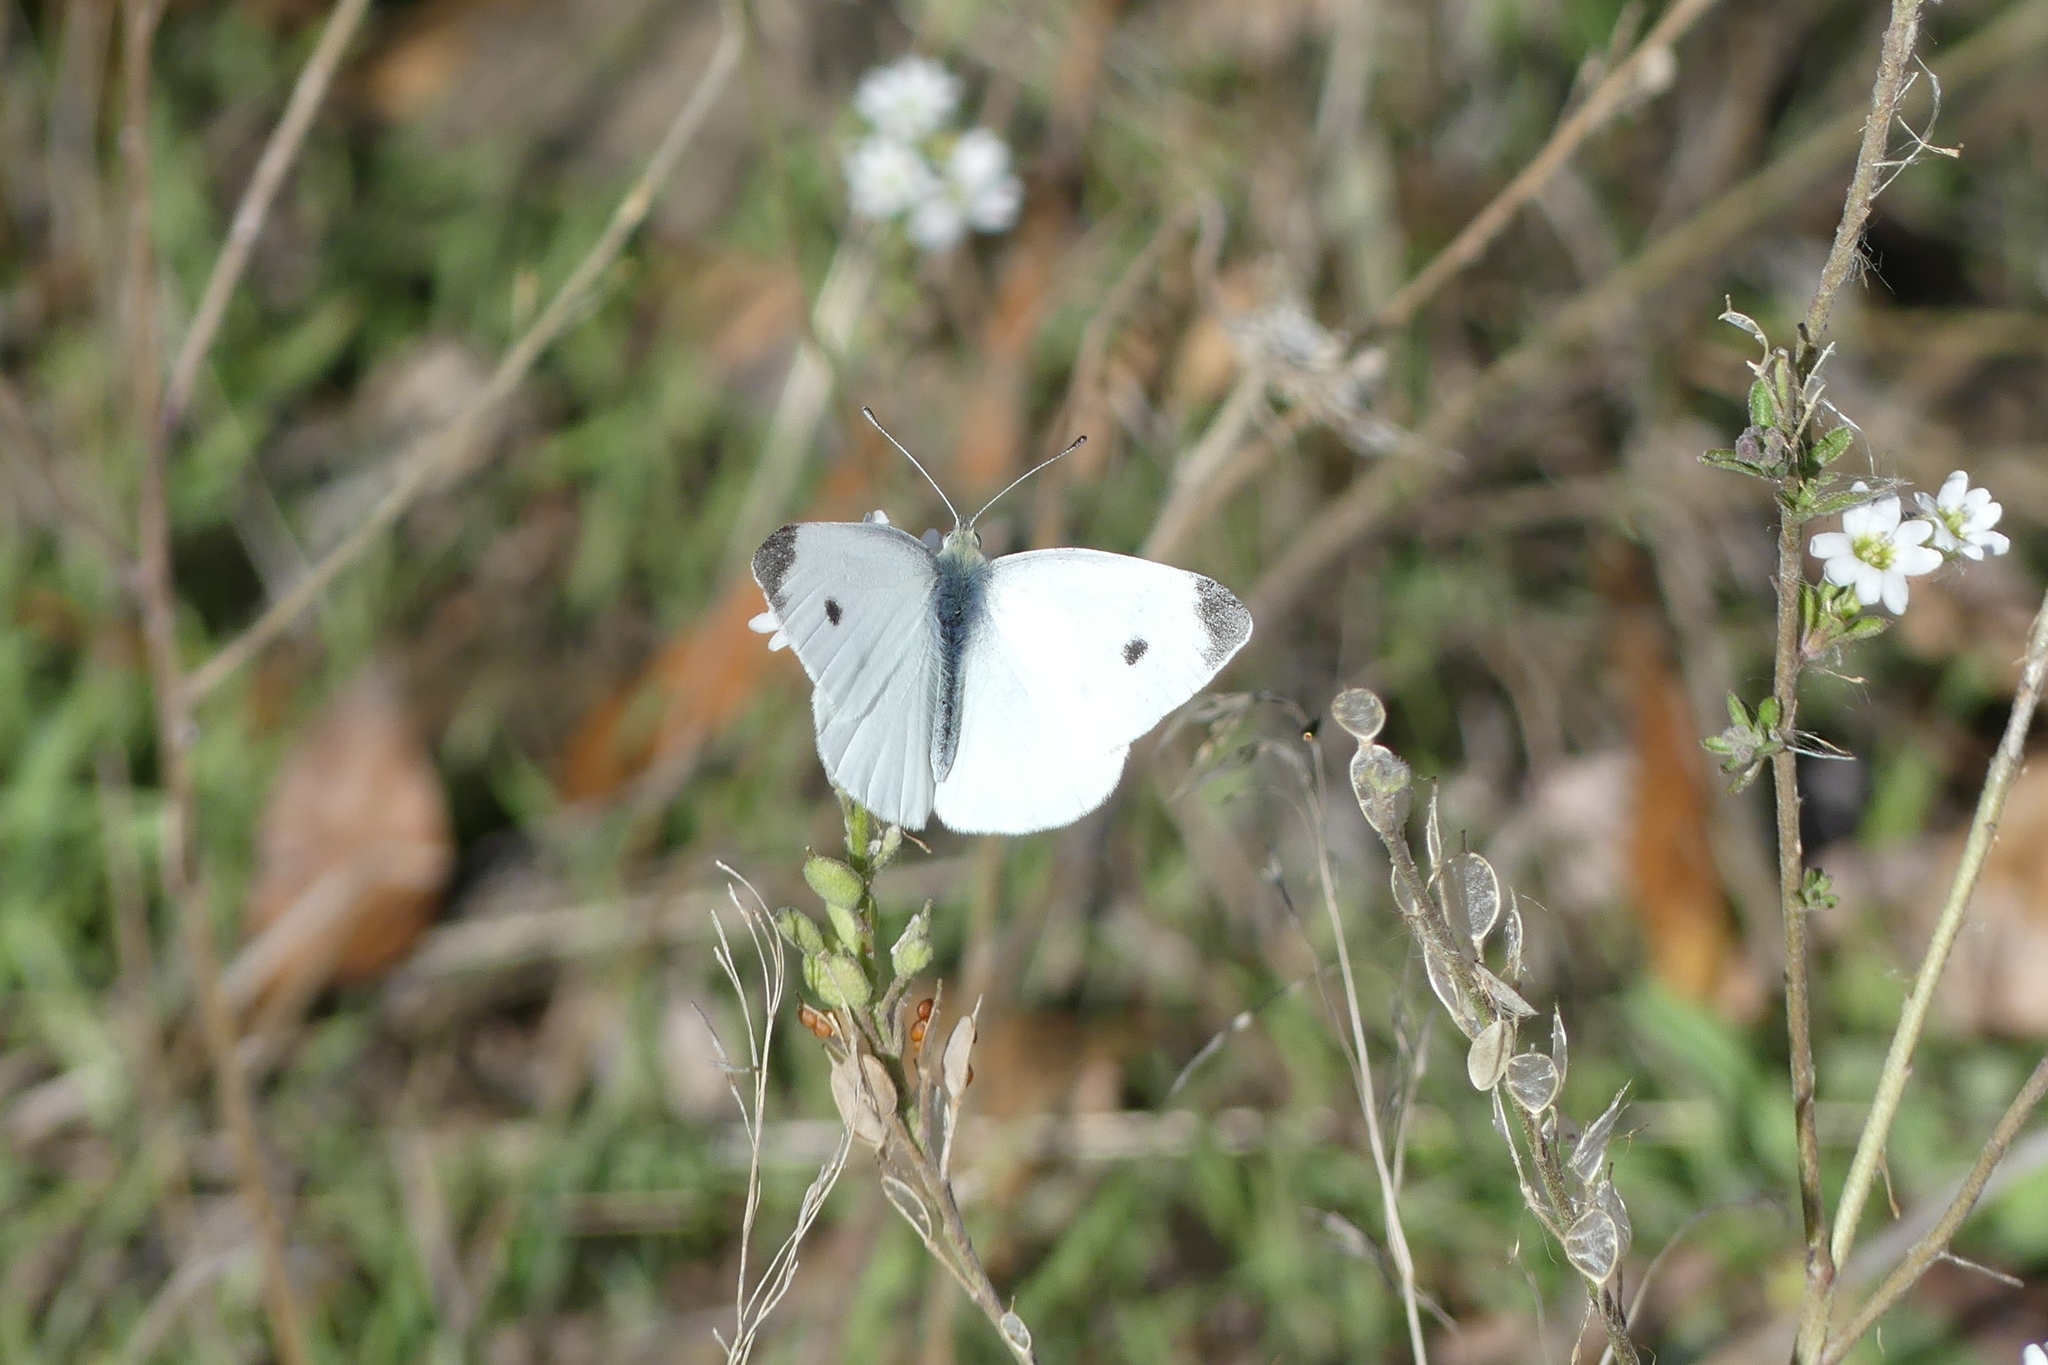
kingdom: Animalia
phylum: Arthropoda
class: Insecta
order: Lepidoptera
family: Pieridae
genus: Pieris
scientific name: Pieris rapae
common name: Small white
